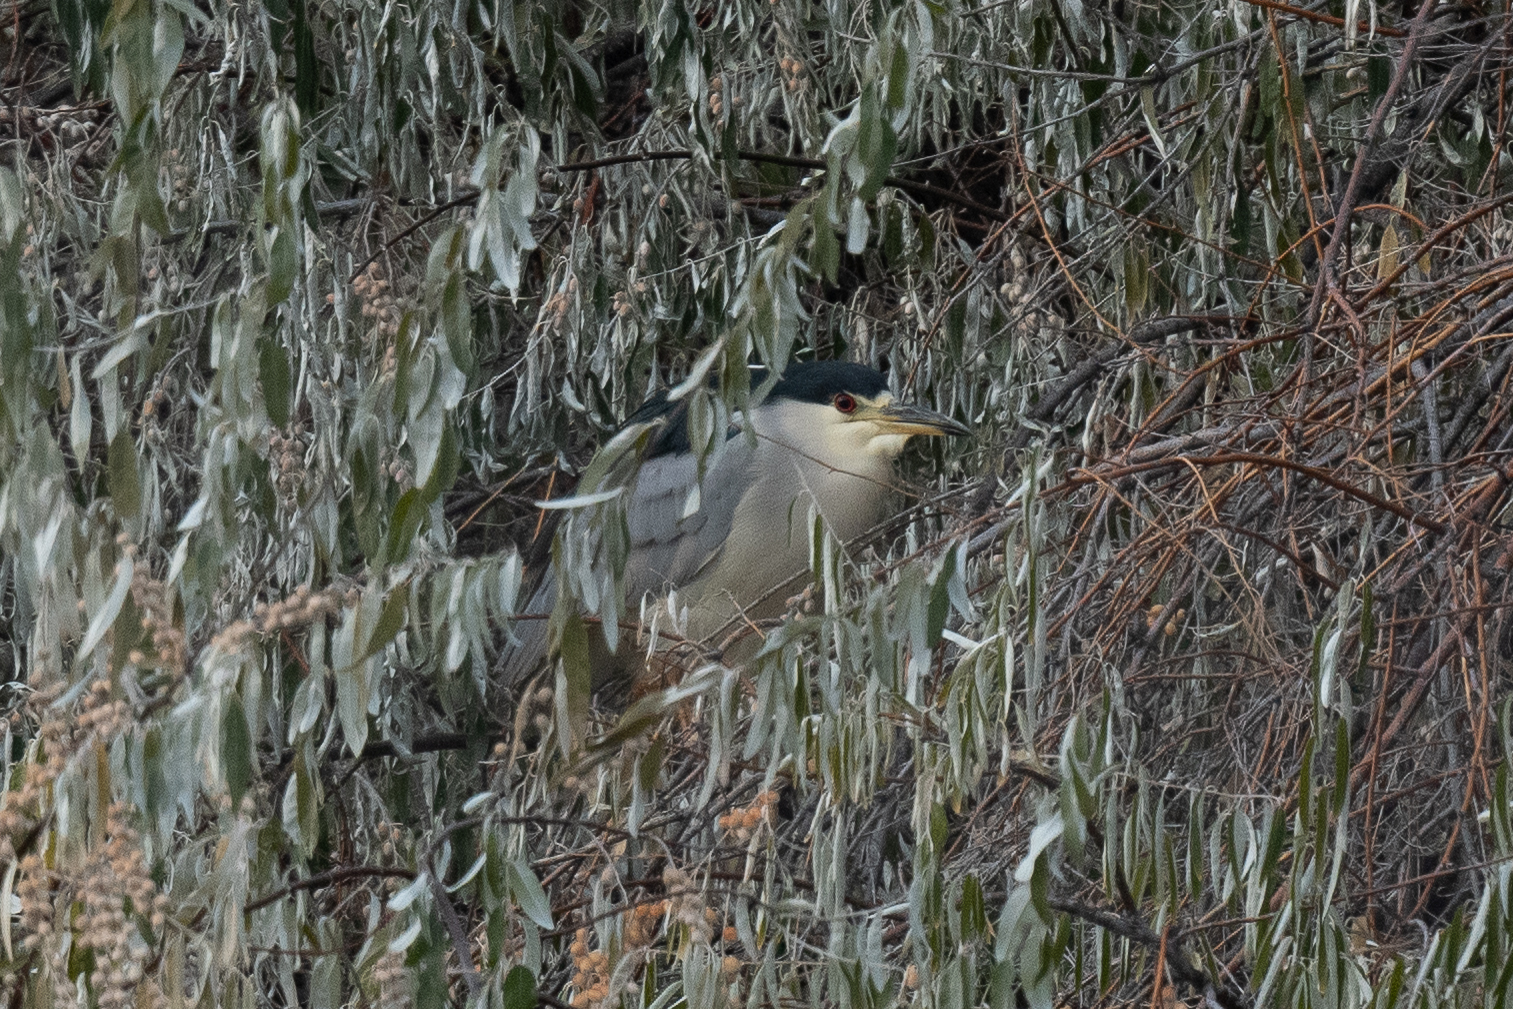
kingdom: Animalia
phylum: Chordata
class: Aves
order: Pelecaniformes
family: Ardeidae
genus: Nycticorax
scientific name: Nycticorax nycticorax
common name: Black-crowned night heron
